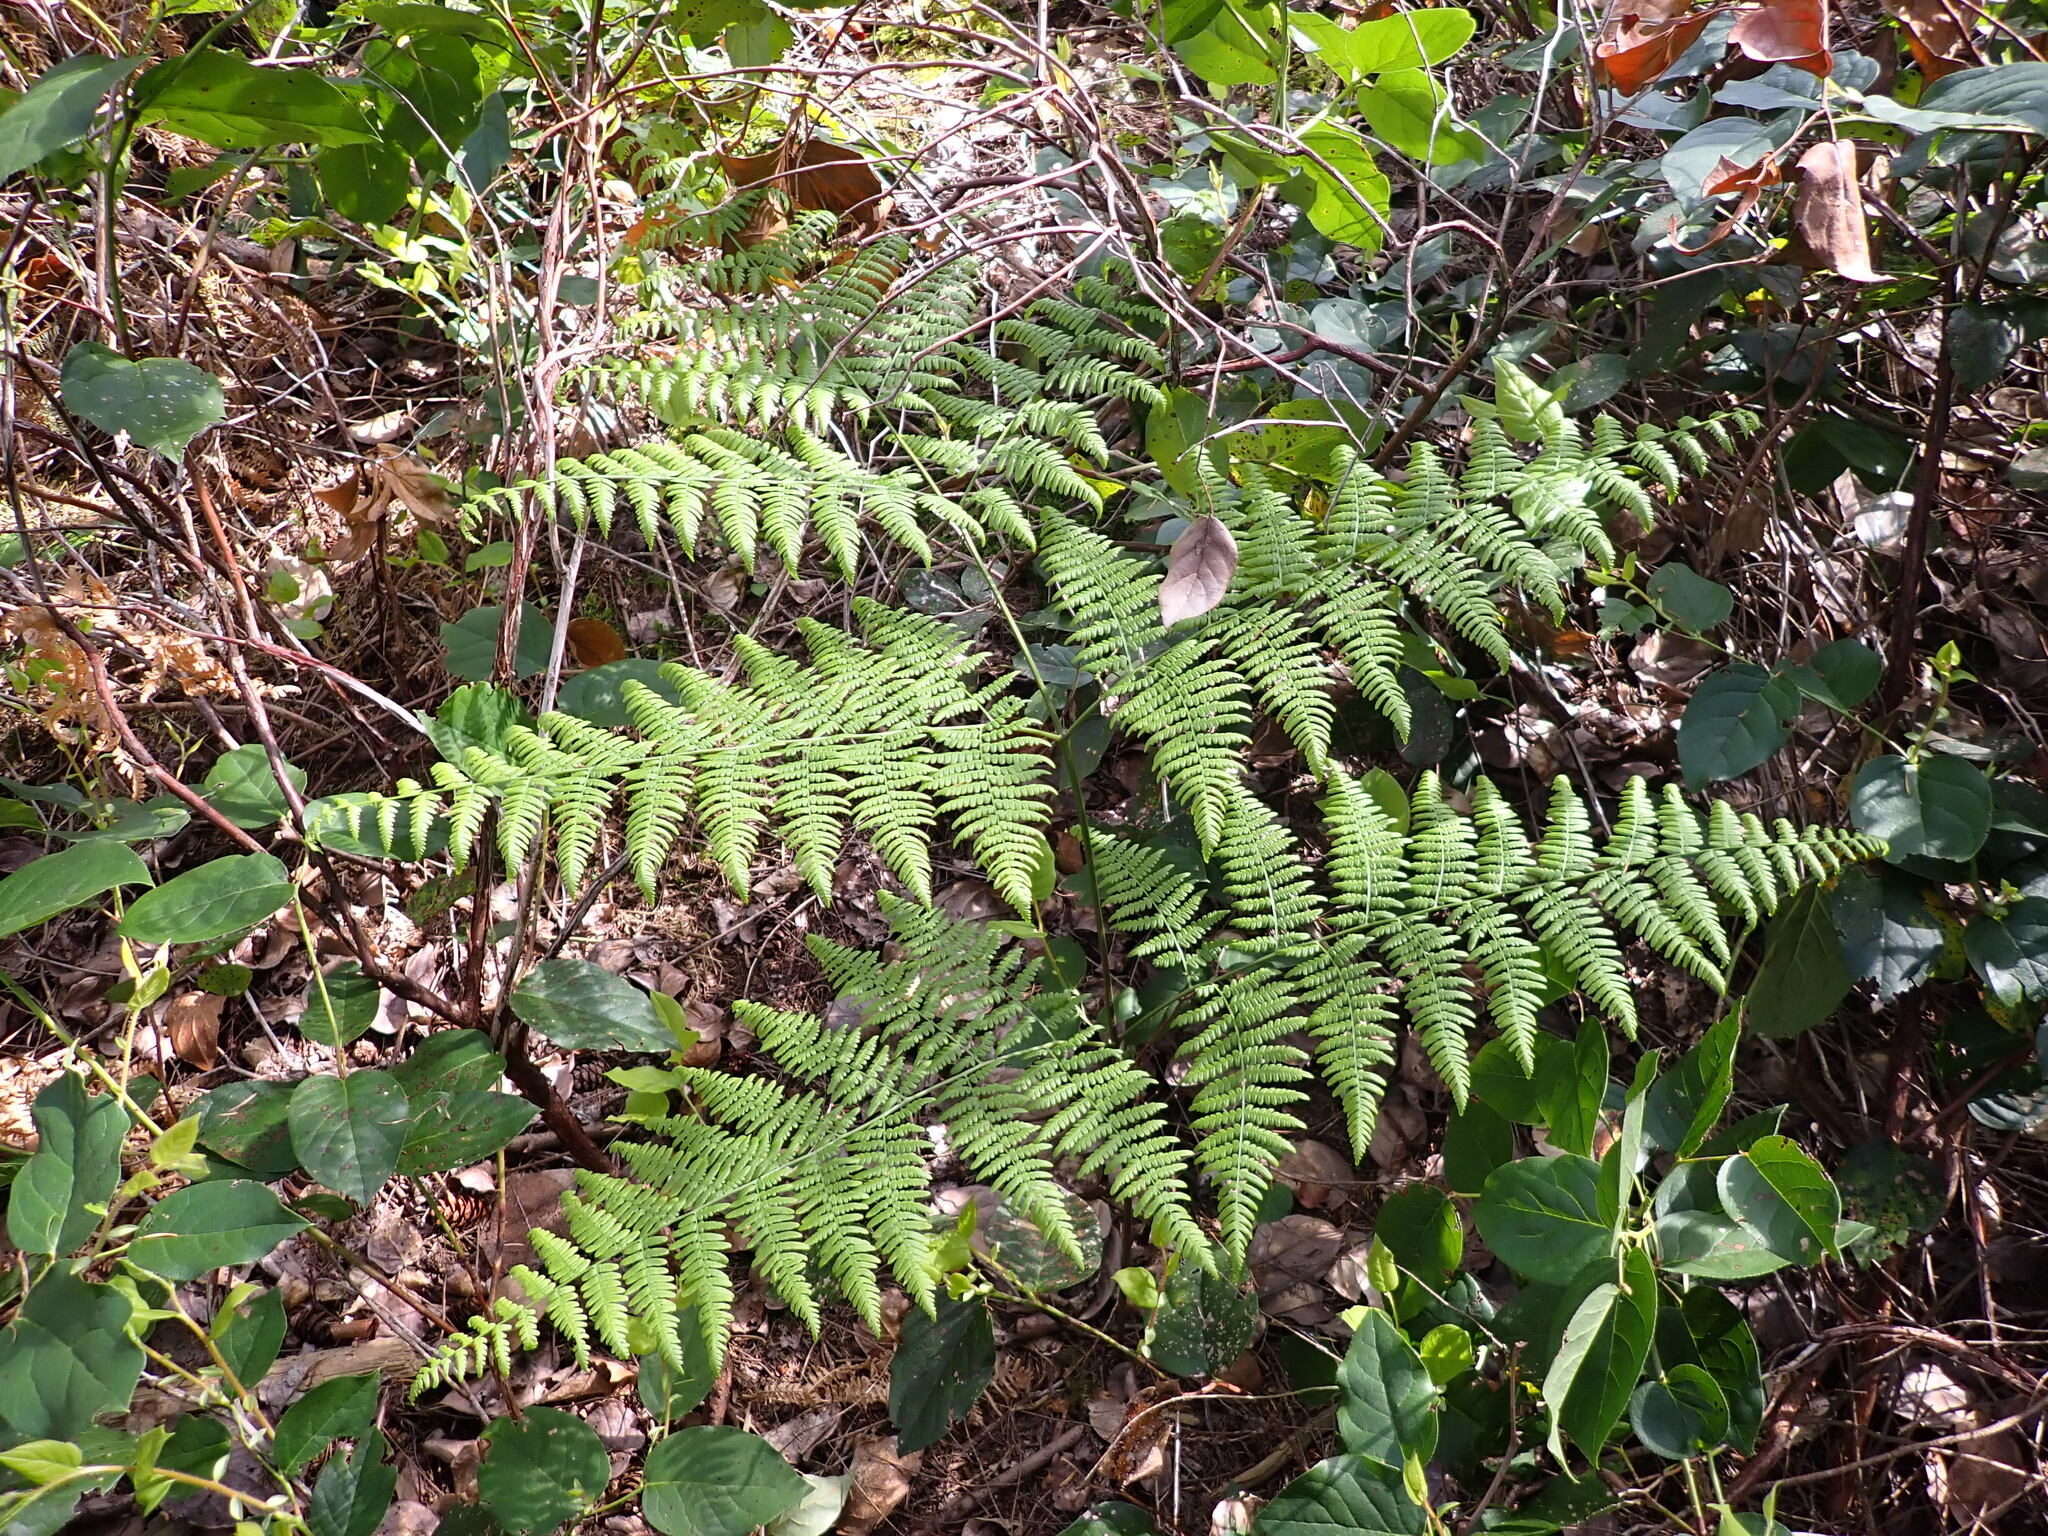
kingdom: Plantae
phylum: Tracheophyta
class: Polypodiopsida
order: Polypodiales
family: Dennstaedtiaceae
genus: Pteridium
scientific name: Pteridium aquilinum
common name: Bracken
